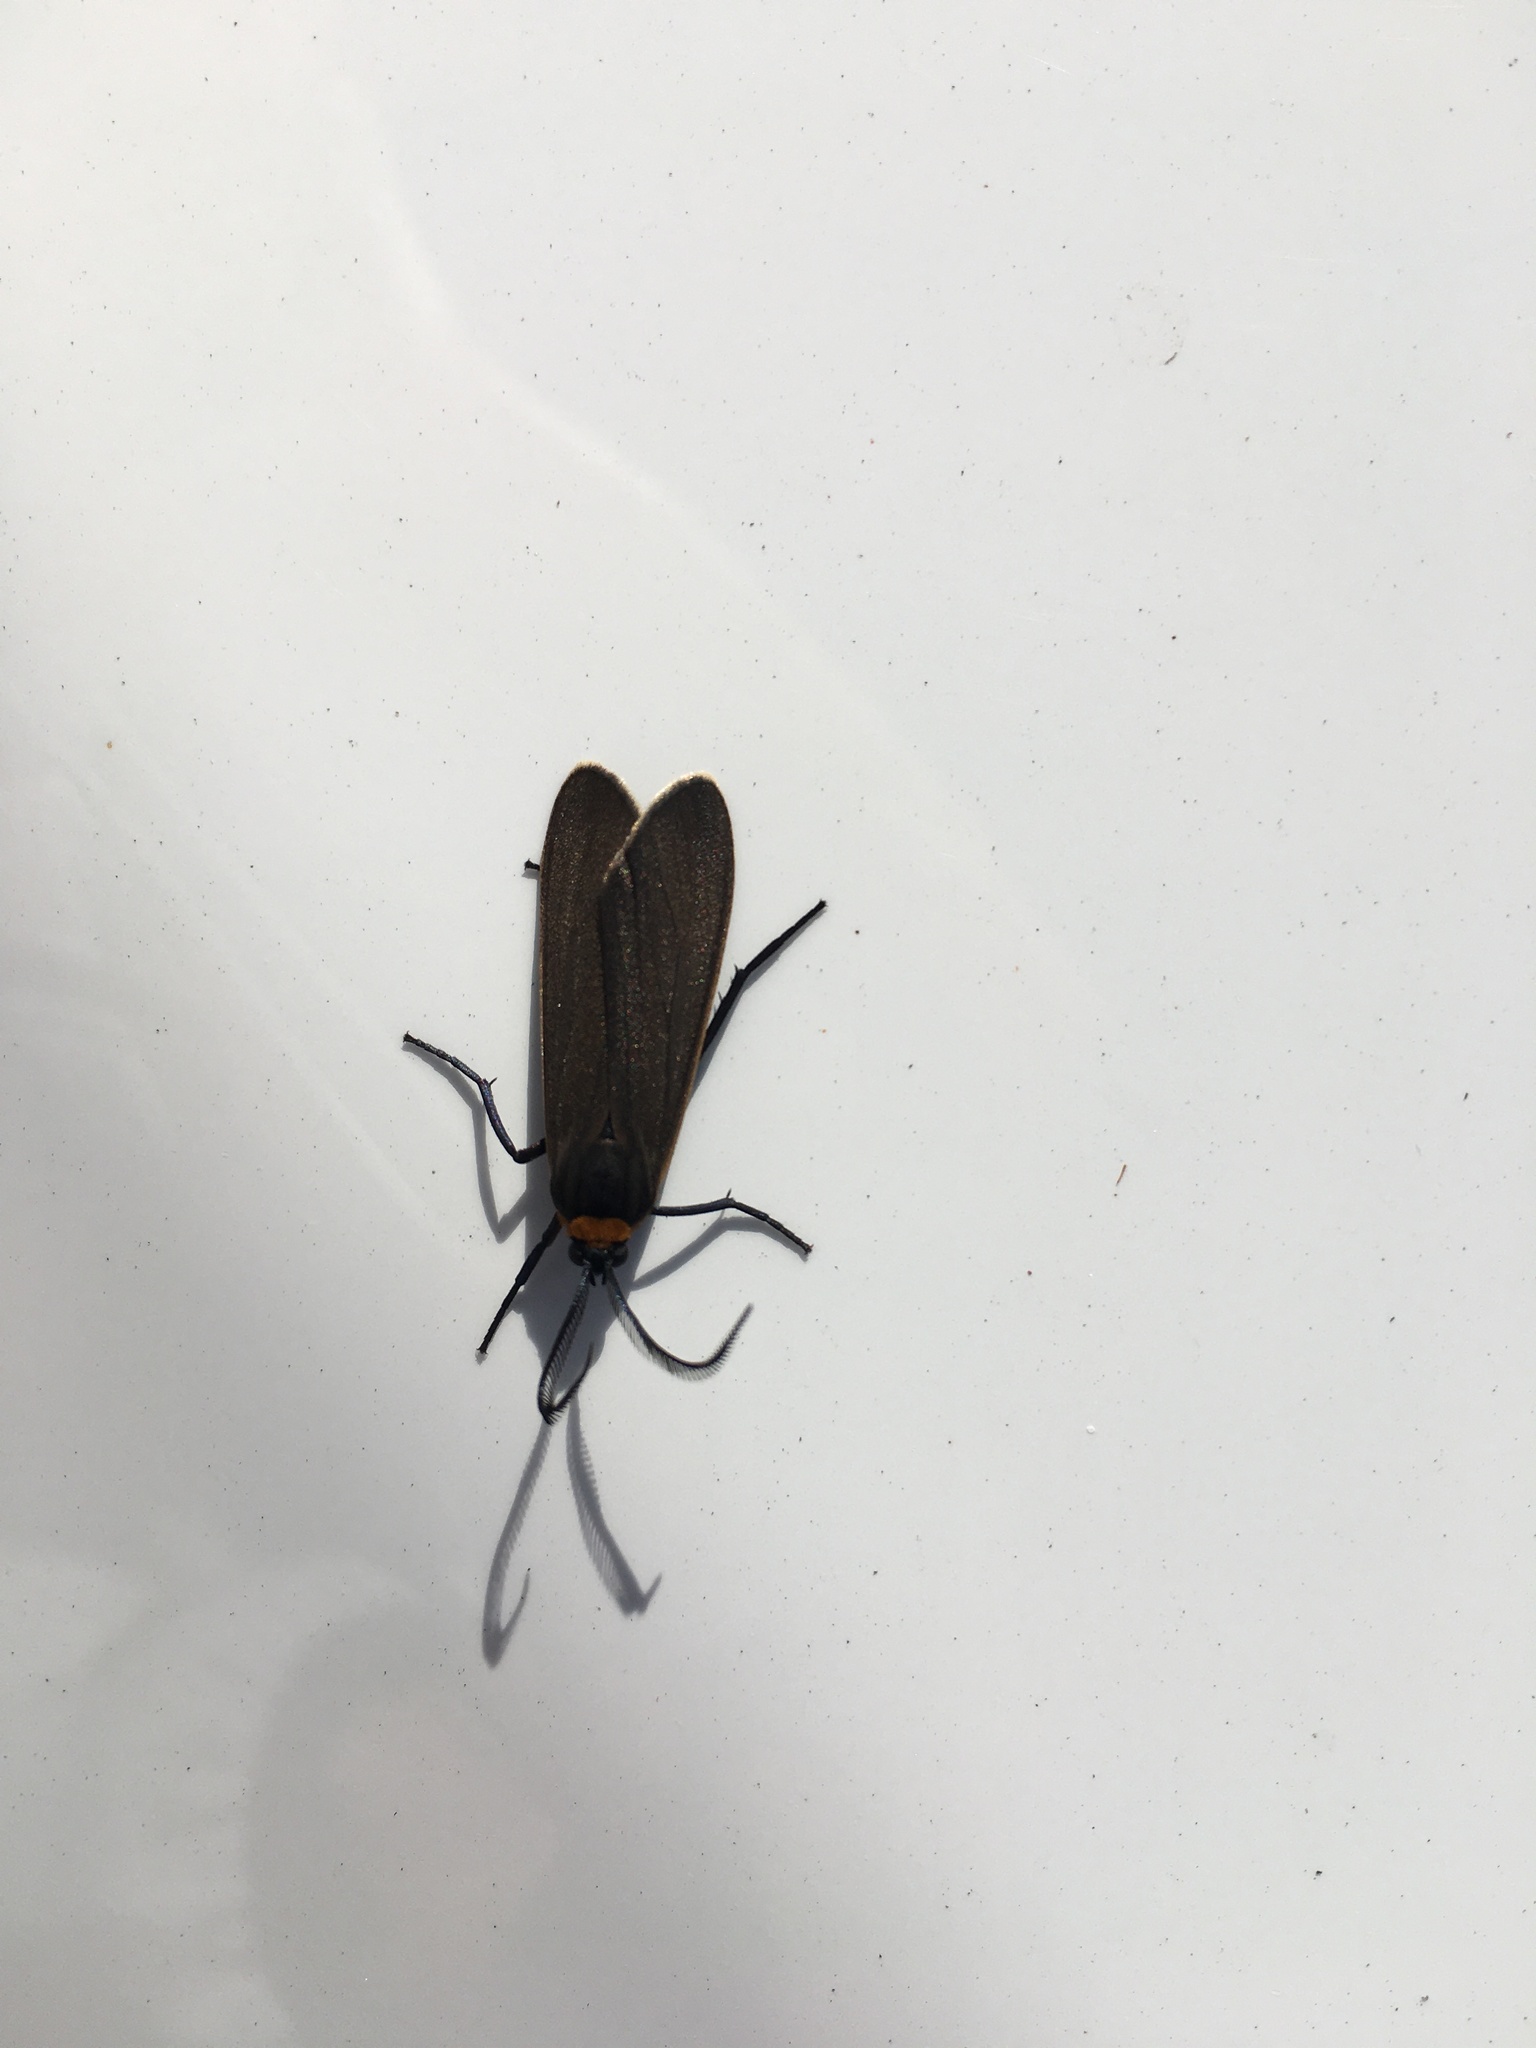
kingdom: Animalia
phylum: Arthropoda
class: Insecta
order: Lepidoptera
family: Erebidae
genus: Cisseps
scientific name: Cisseps fulvicollis
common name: Yellow-collared scape moth
